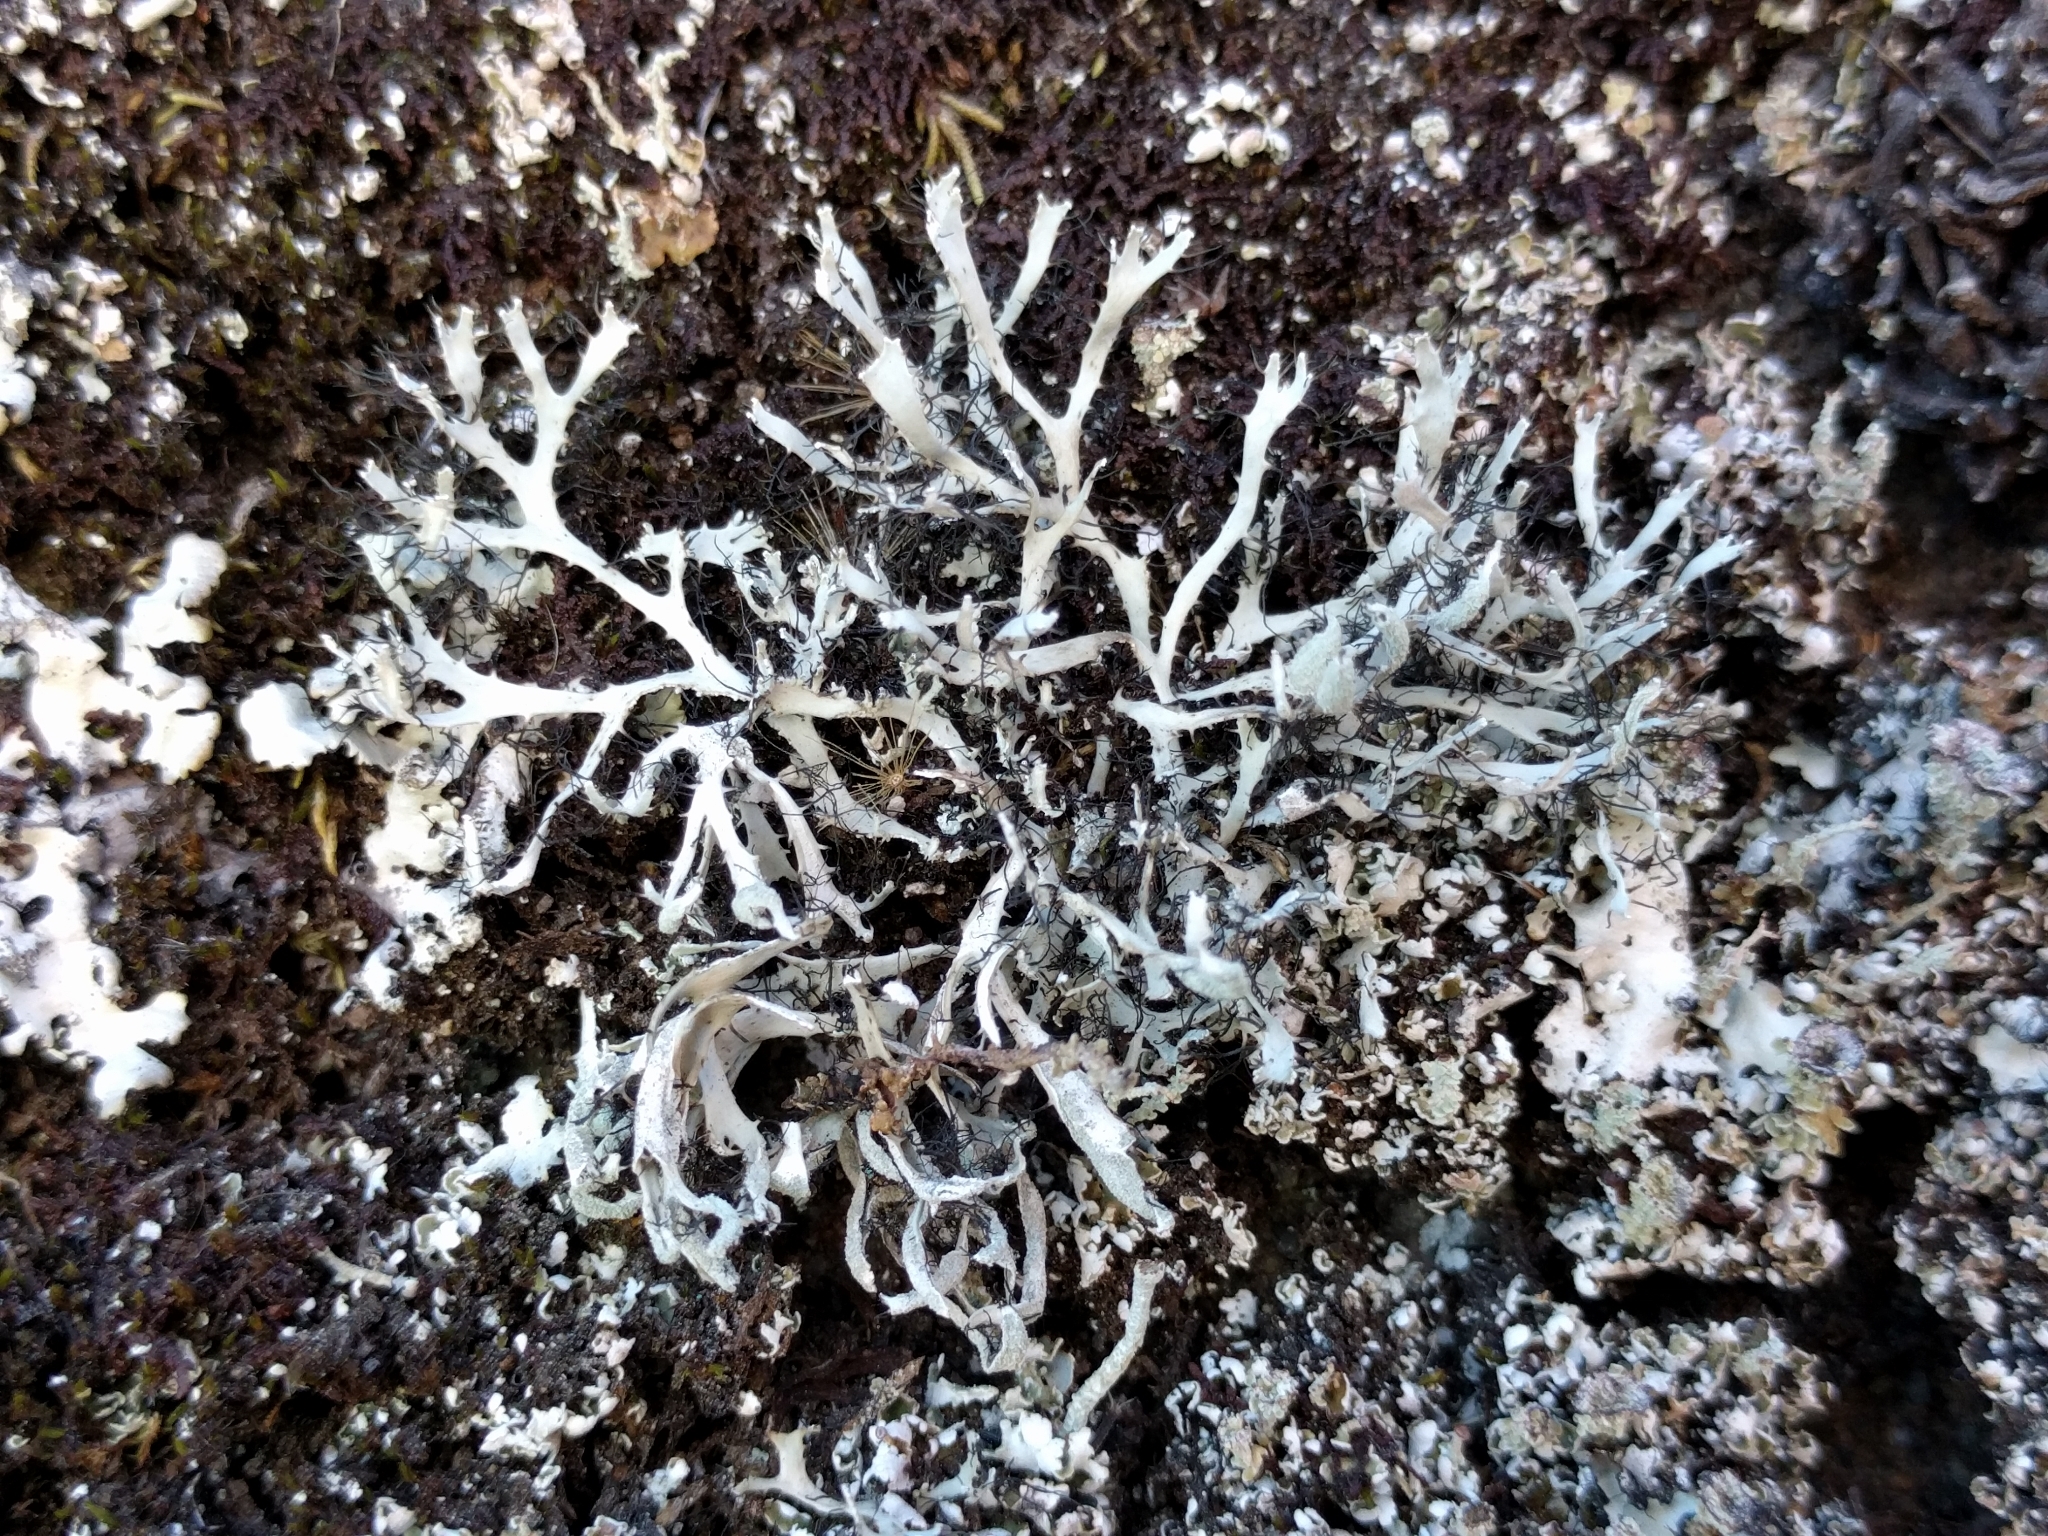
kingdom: Fungi
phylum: Ascomycota
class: Lecanoromycetes
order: Caliciales
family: Physciaceae
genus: Leucodermia
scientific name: Leucodermia leucomelos
